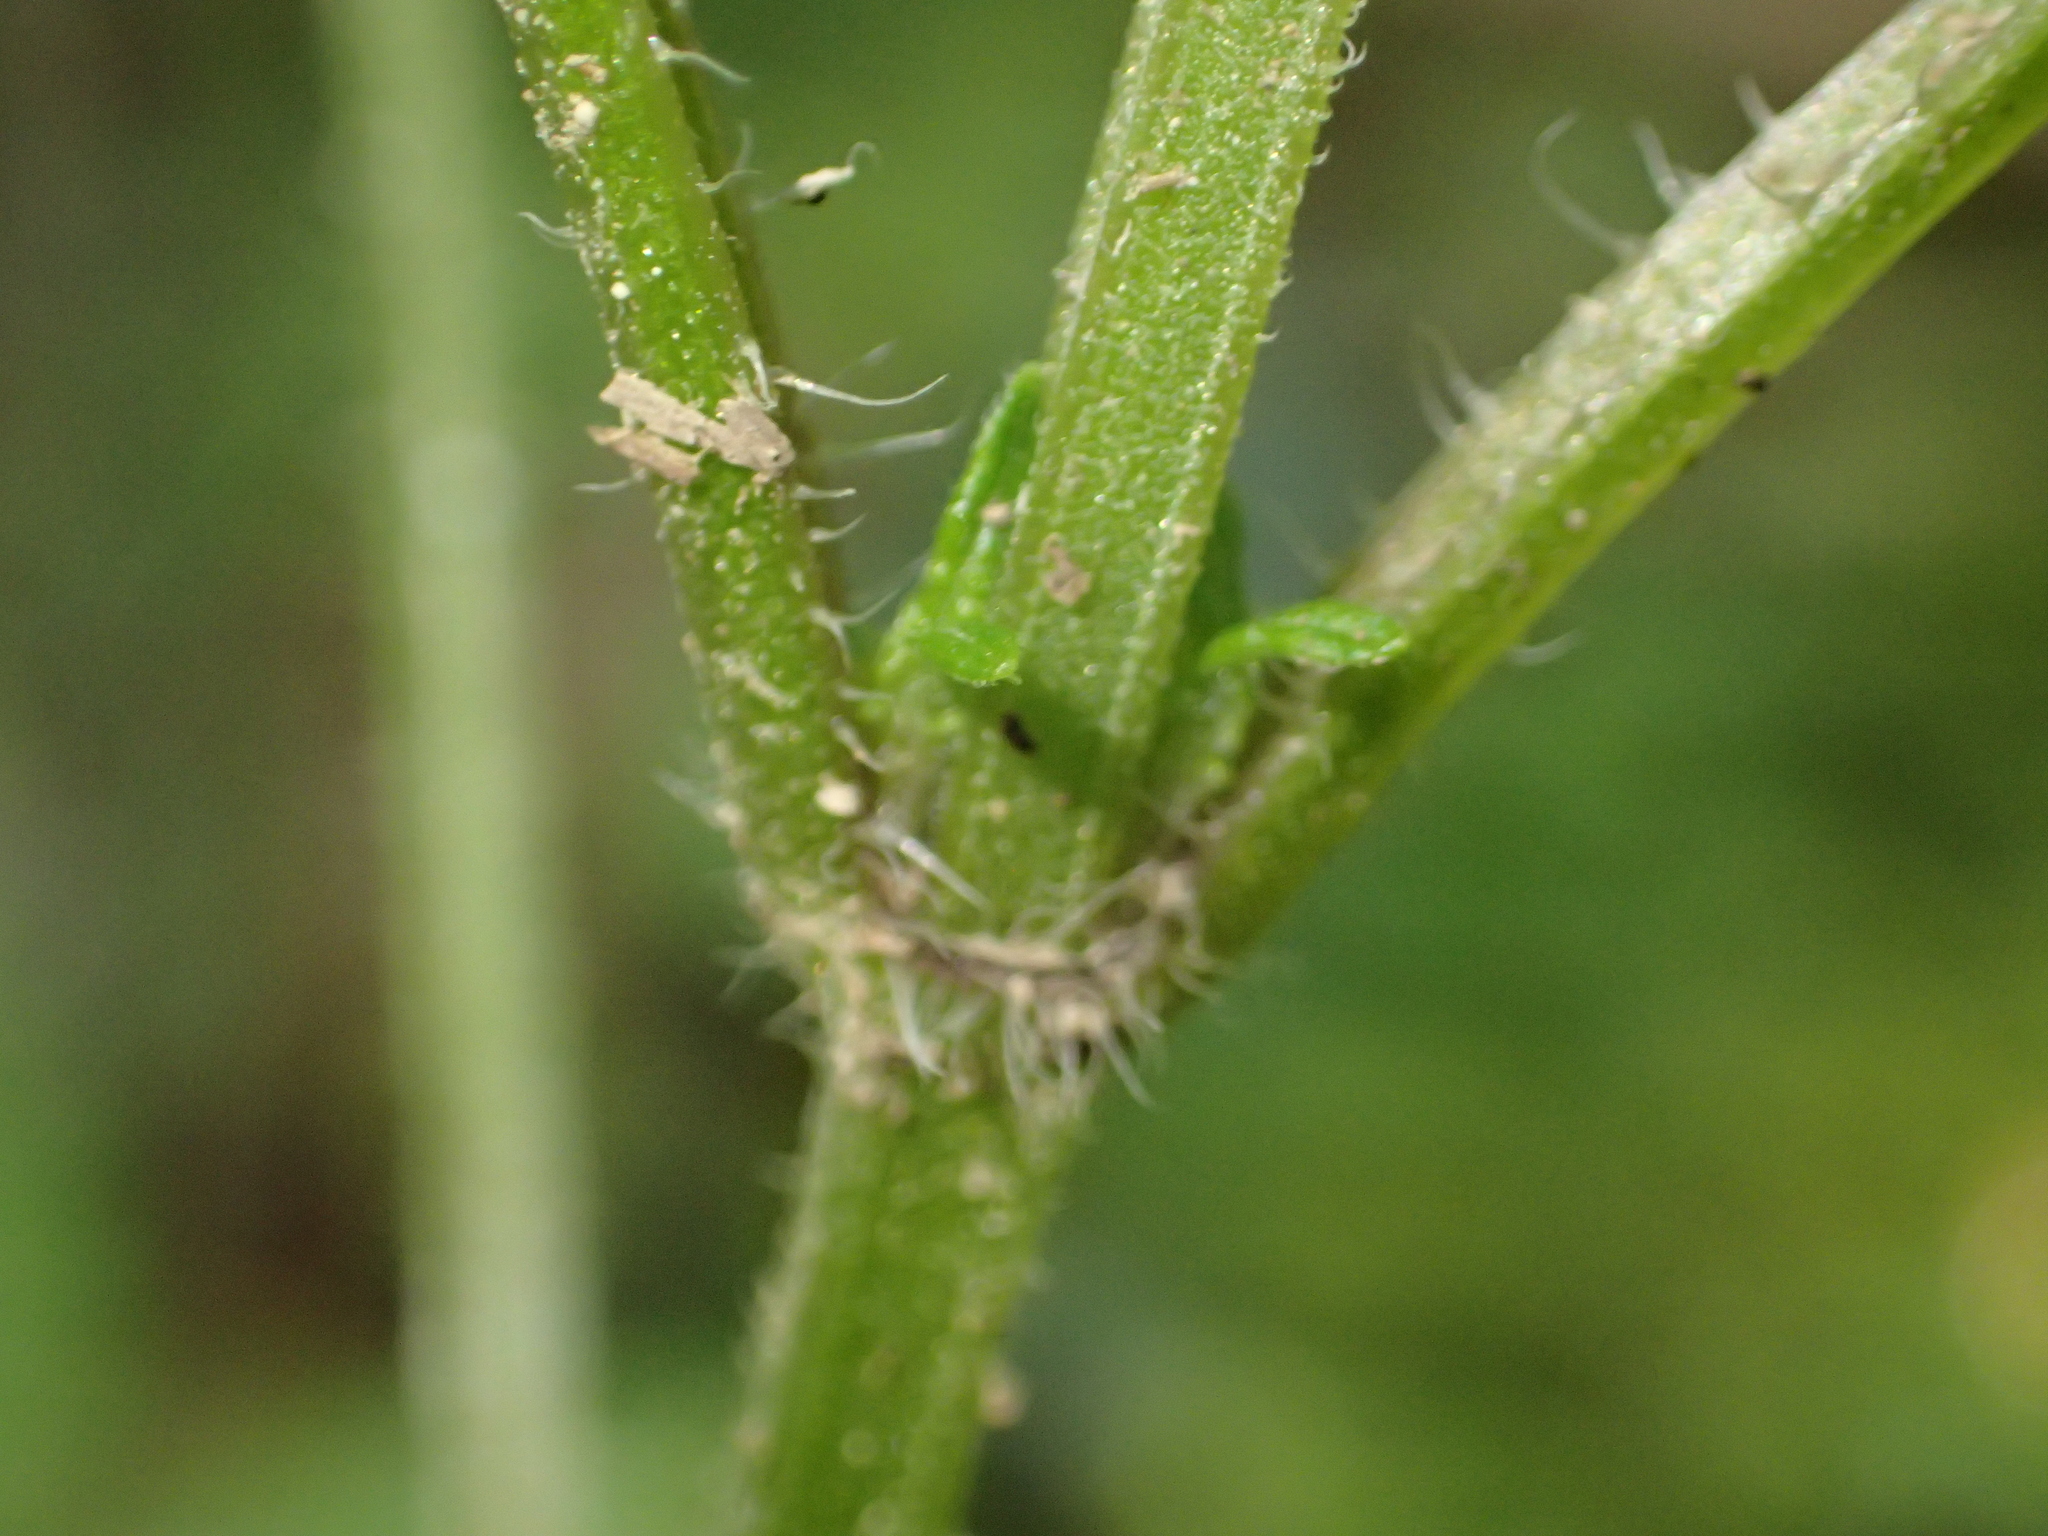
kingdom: Plantae
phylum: Tracheophyta
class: Magnoliopsida
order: Lamiales
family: Lamiaceae
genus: Cedronella
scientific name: Cedronella canariensis
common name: Canary islands balm
